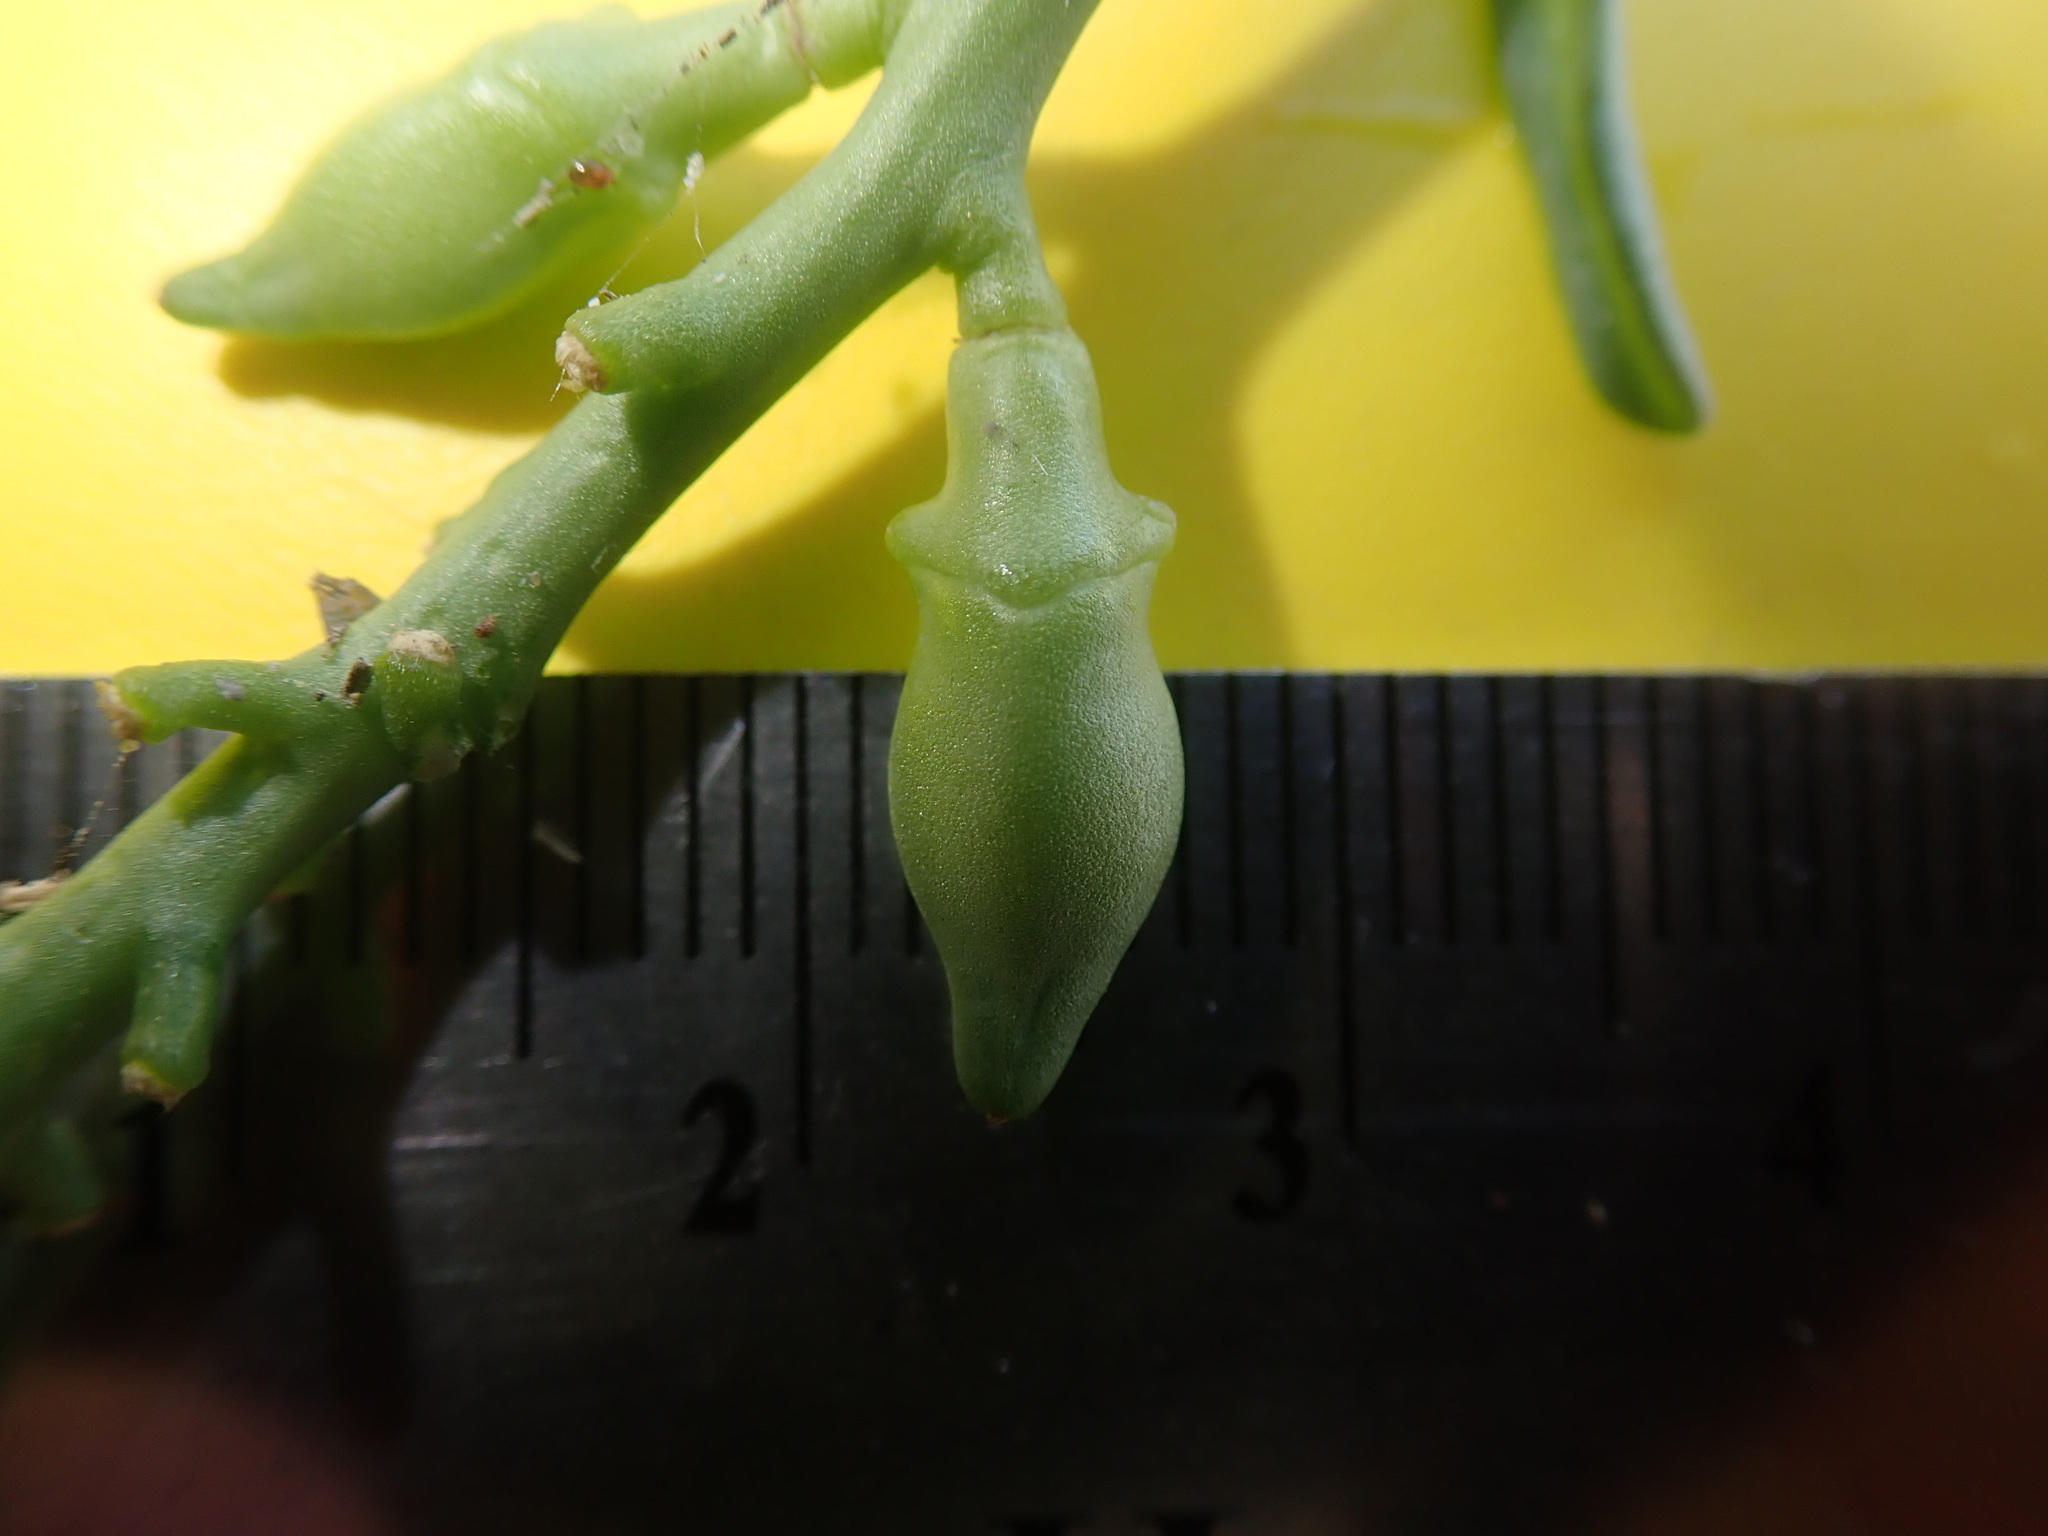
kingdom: Plantae
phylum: Tracheophyta
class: Magnoliopsida
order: Brassicales
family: Brassicaceae
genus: Cakile
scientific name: Cakile maritima
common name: Sea rocket
